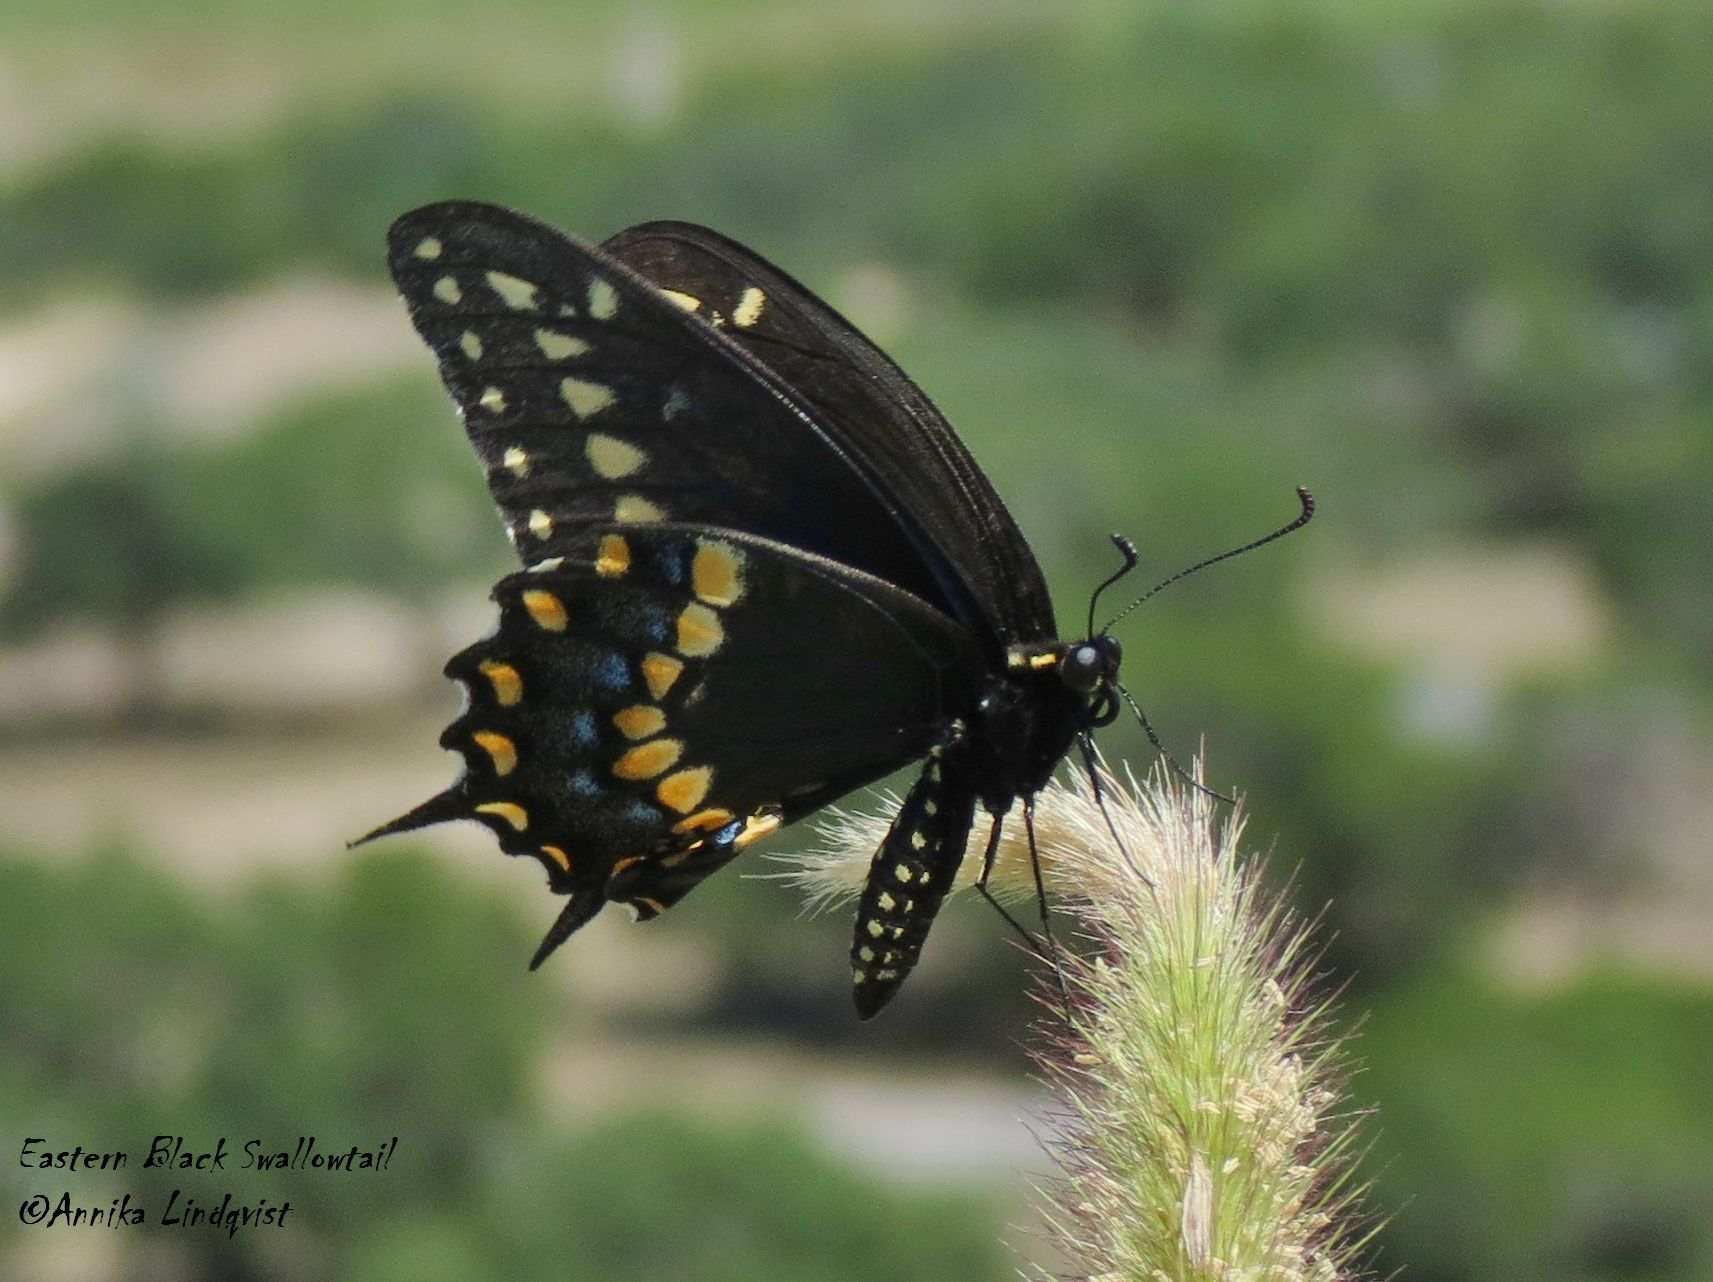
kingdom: Animalia
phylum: Arthropoda
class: Insecta
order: Lepidoptera
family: Papilionidae
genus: Papilio
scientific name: Papilio polyxenes
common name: Black swallowtail
